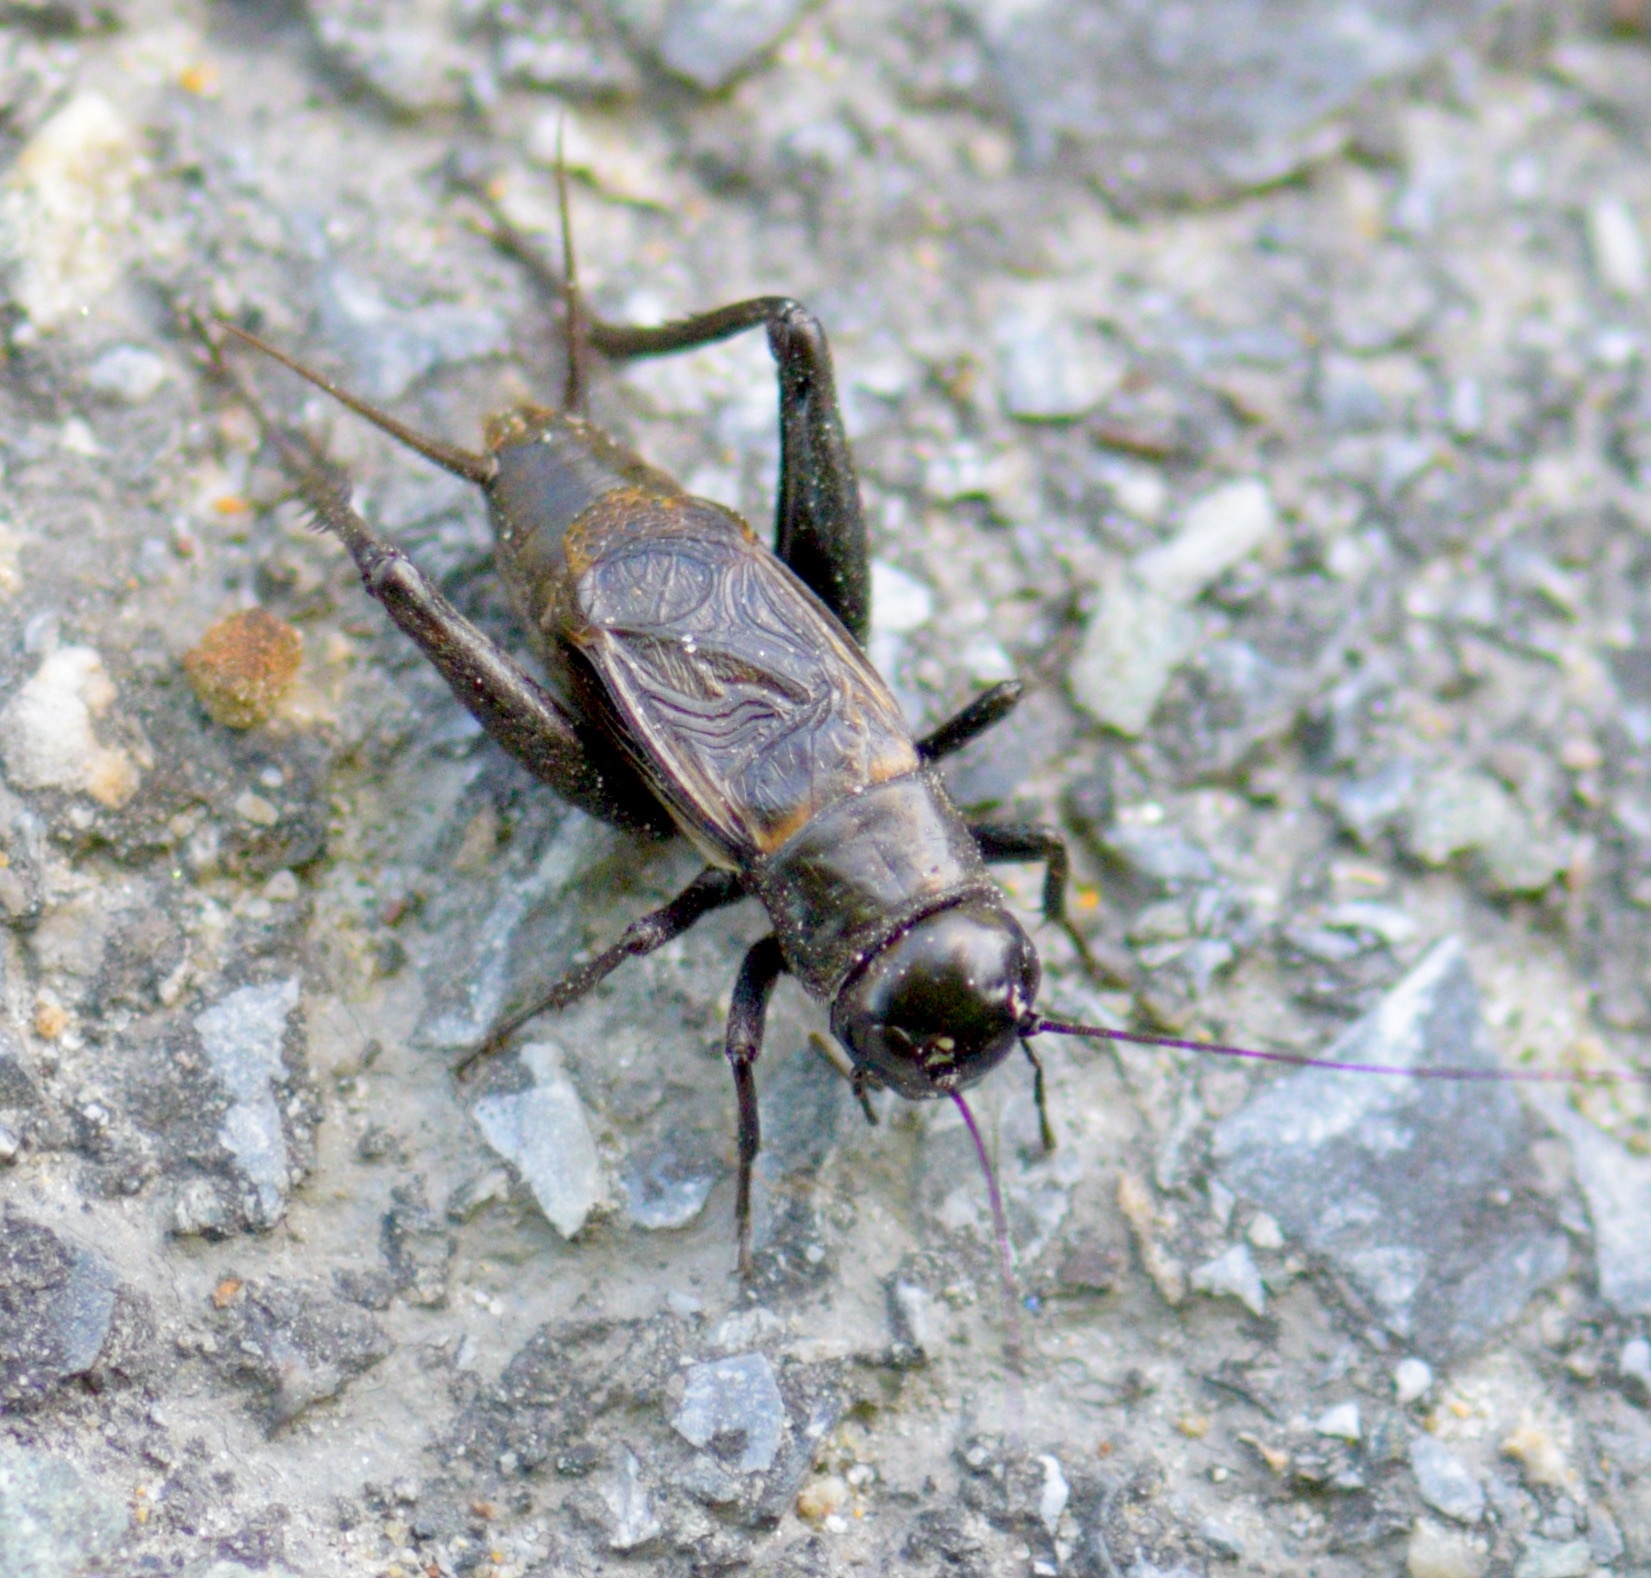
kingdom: Animalia
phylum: Arthropoda
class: Insecta
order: Orthoptera
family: Gryllidae
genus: Gryllus
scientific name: Gryllus pennsylvanicus
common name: Fall field cricket
